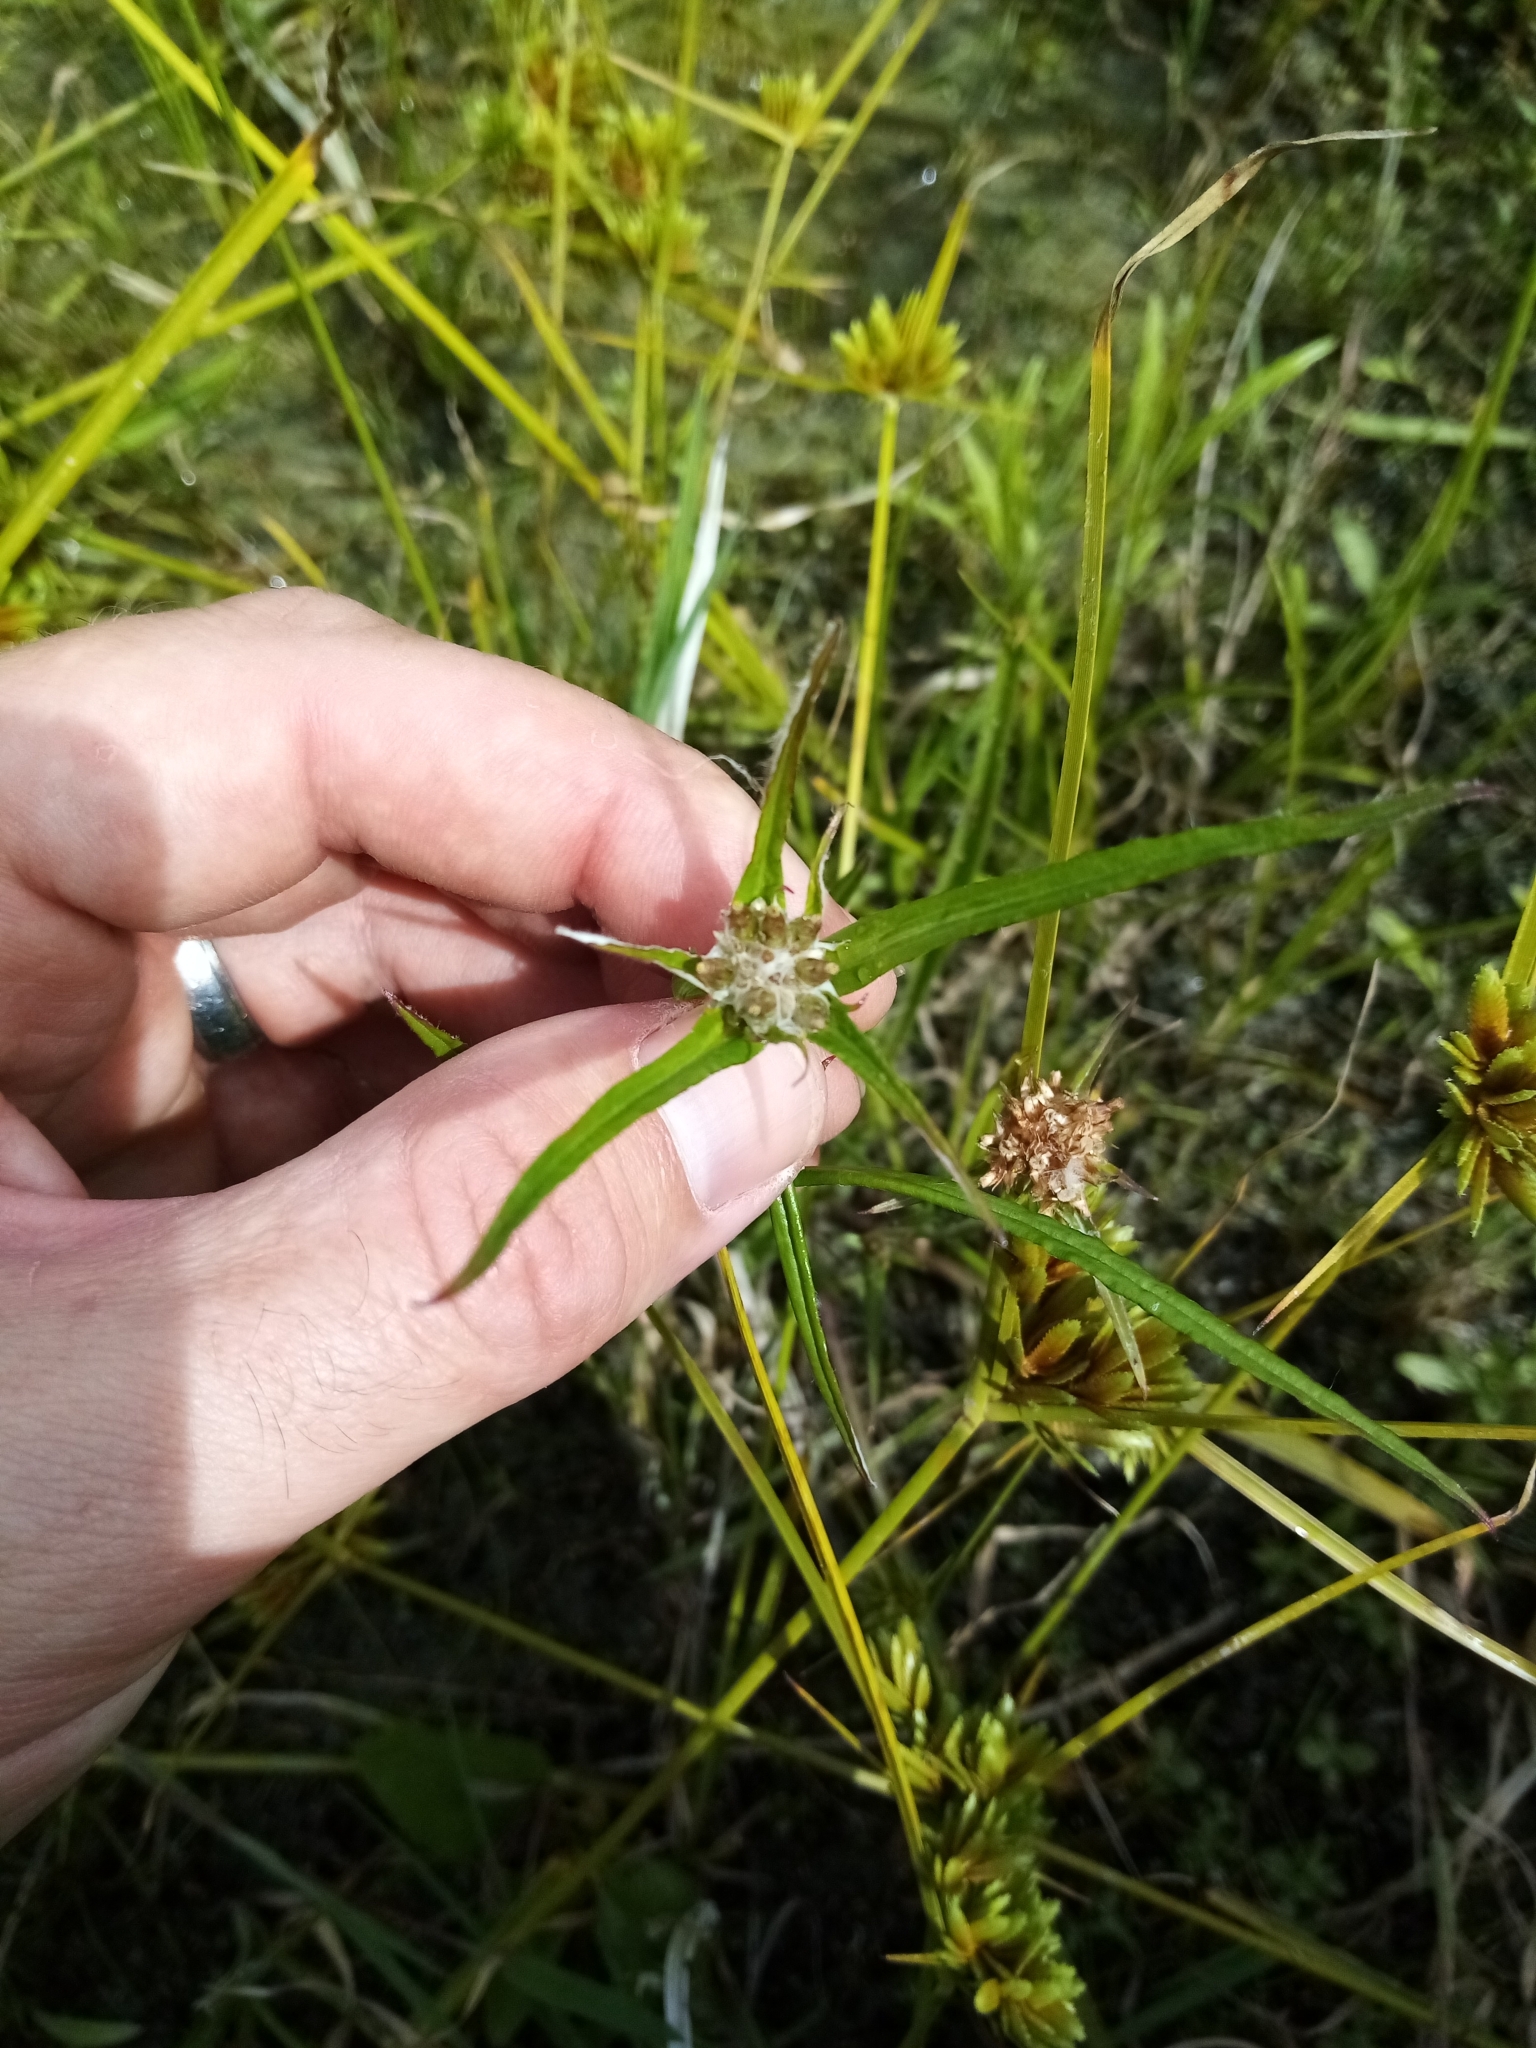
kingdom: Plantae
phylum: Tracheophyta
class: Magnoliopsida
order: Asterales
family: Asteraceae
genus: Euchiton
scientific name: Euchiton involucratus
